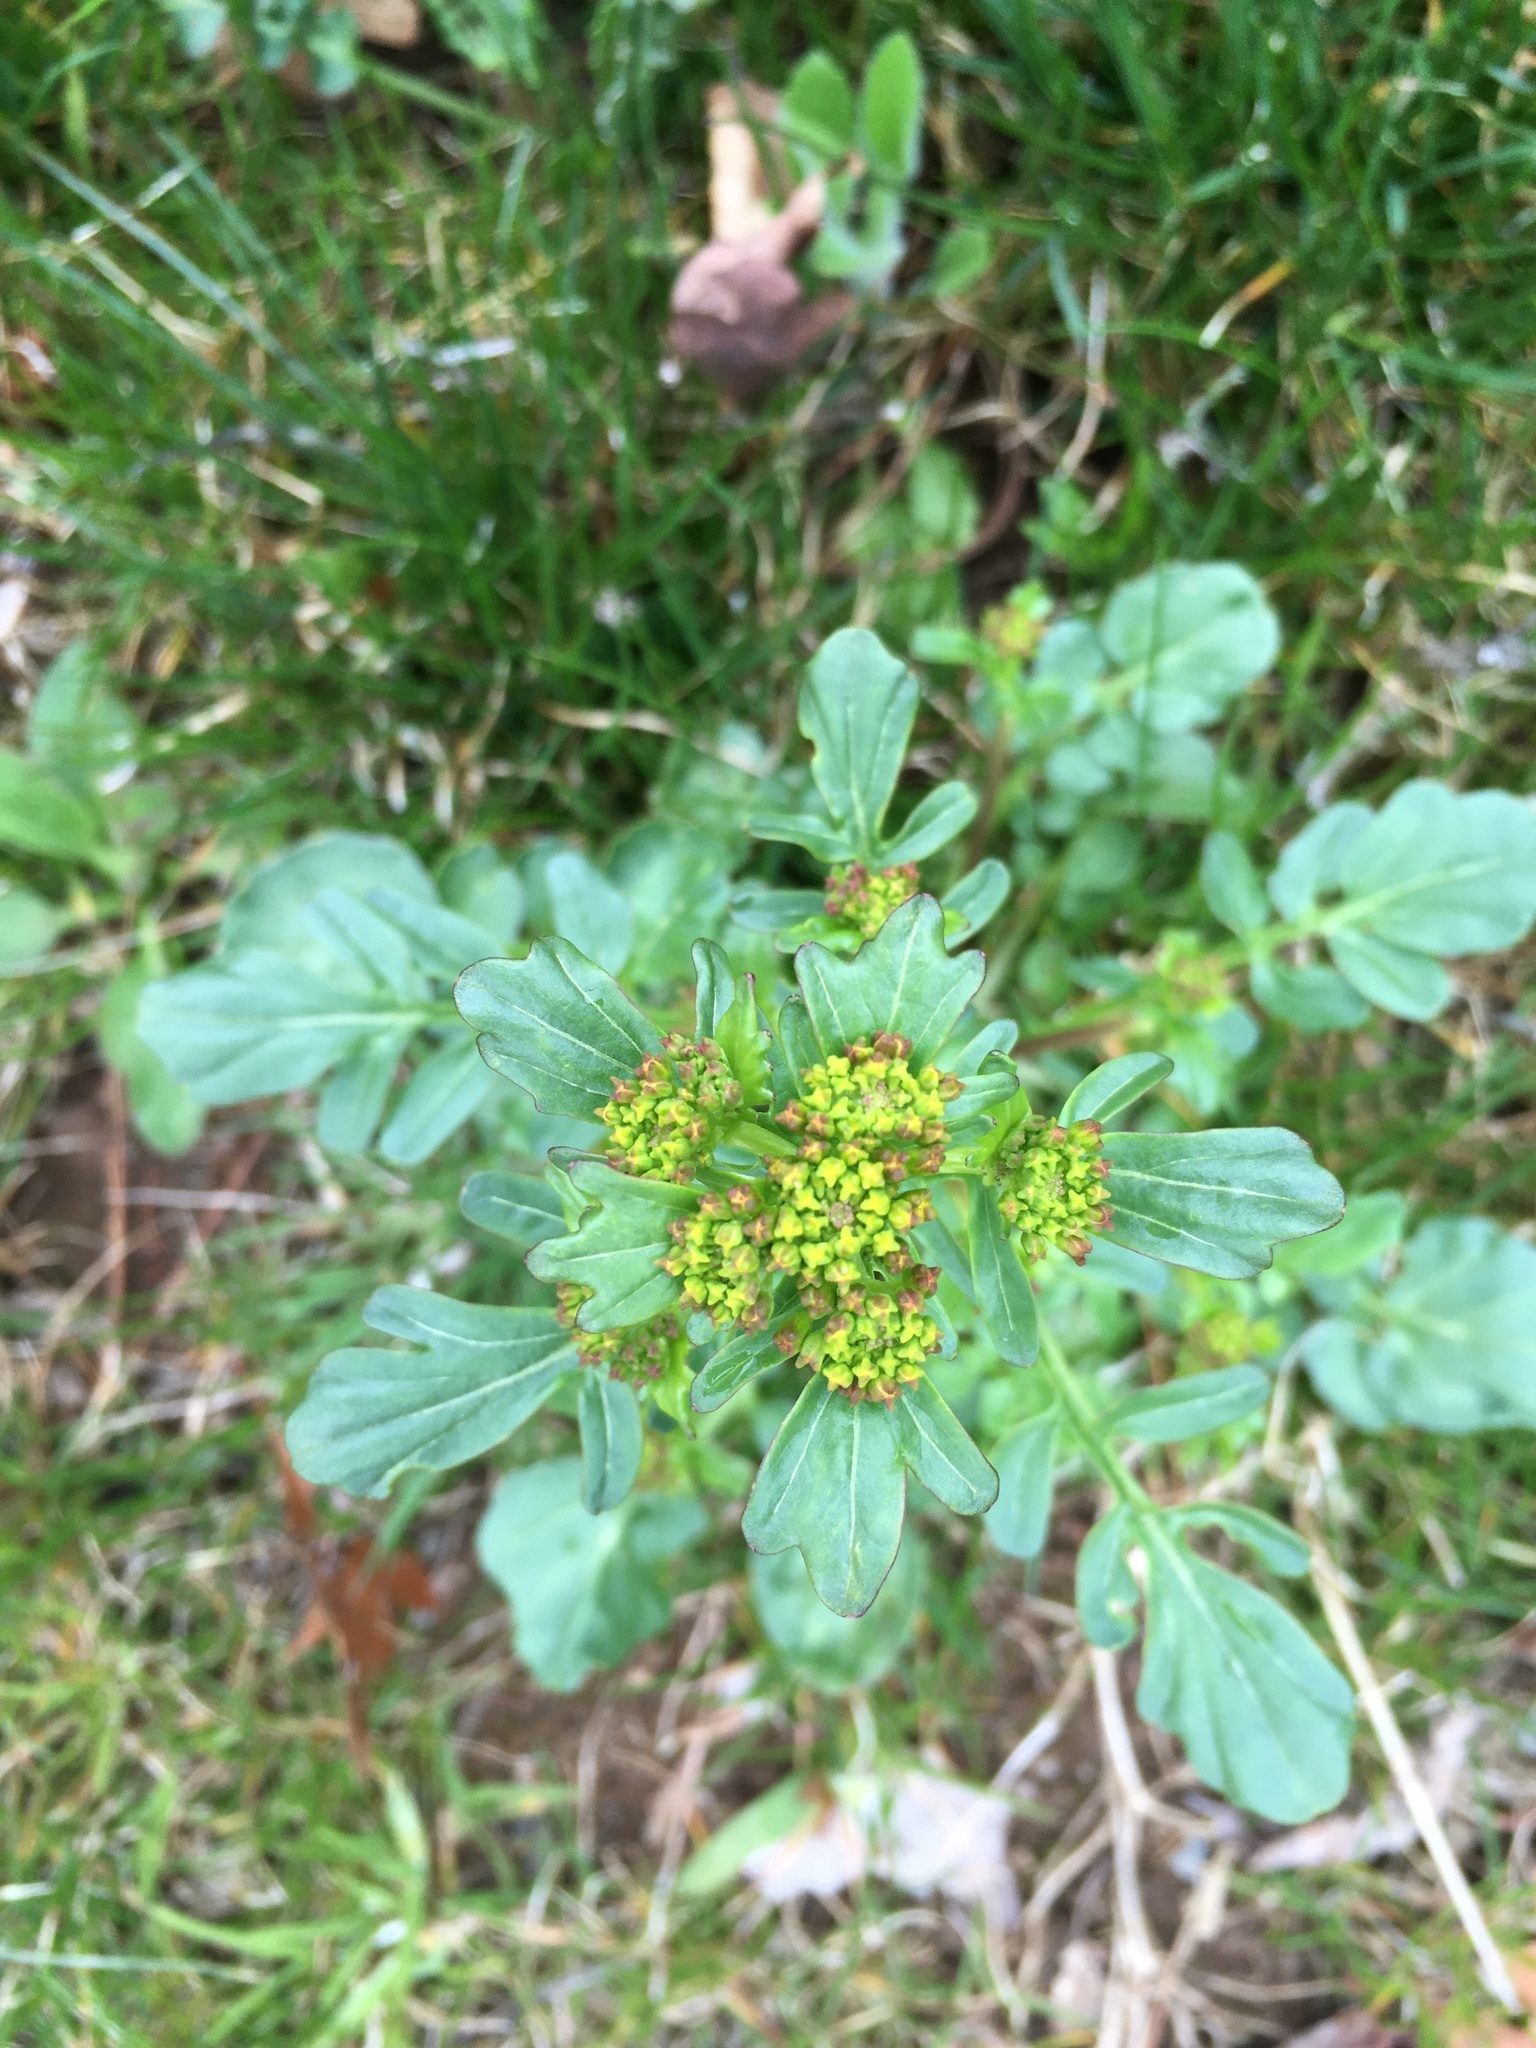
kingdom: Plantae
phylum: Tracheophyta
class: Magnoliopsida
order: Brassicales
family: Brassicaceae
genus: Barbarea
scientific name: Barbarea vulgaris
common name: Cressy-greens
